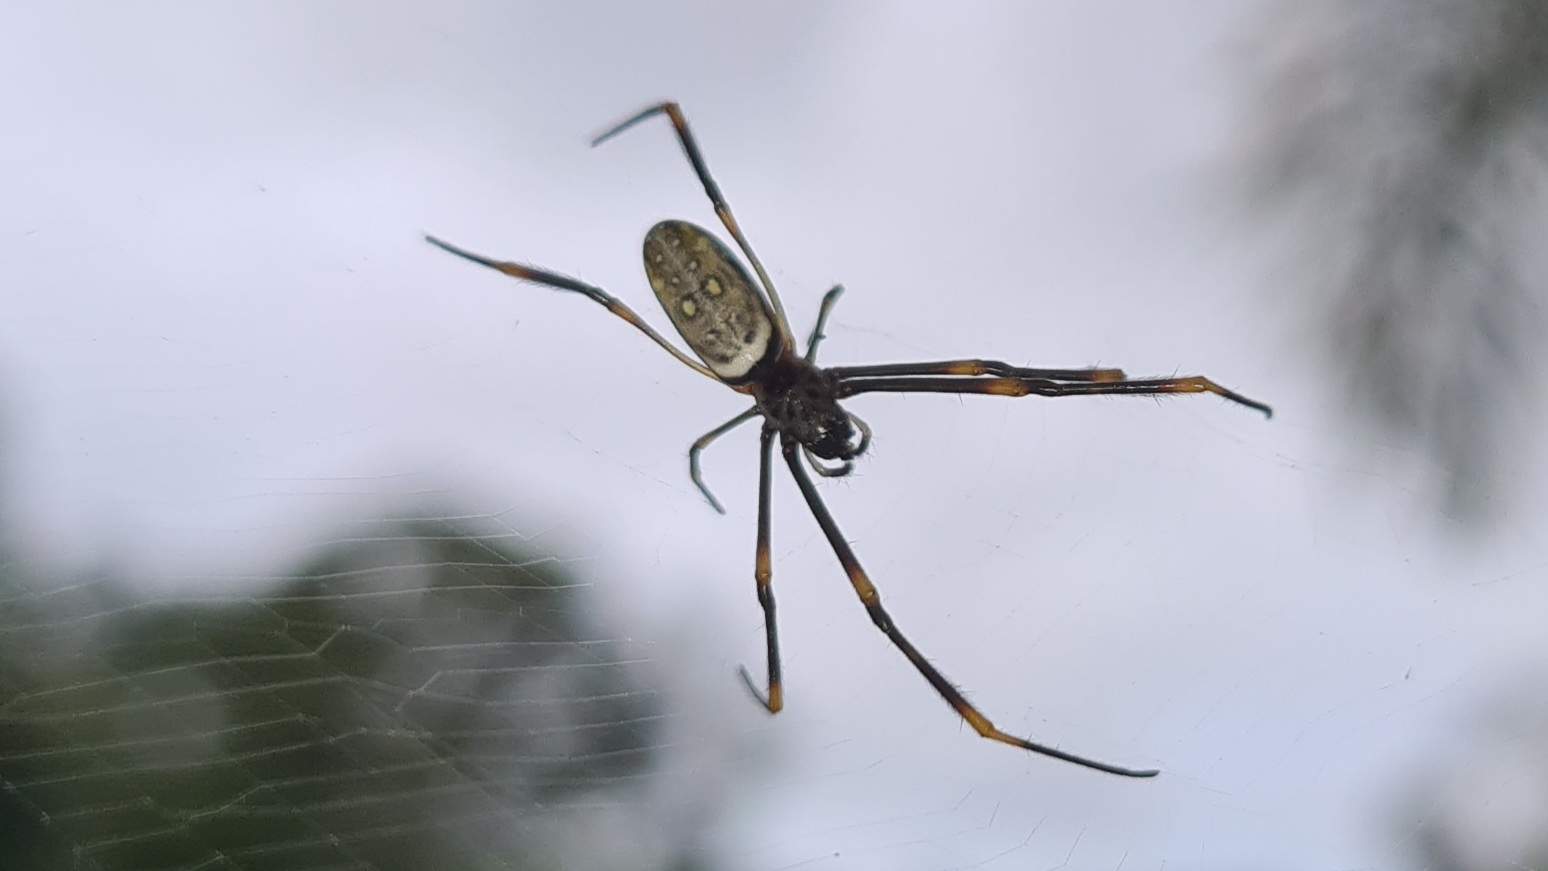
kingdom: Animalia
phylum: Arthropoda
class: Arachnida
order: Araneae
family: Araneidae
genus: Trichonephila
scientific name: Trichonephila plumipes
